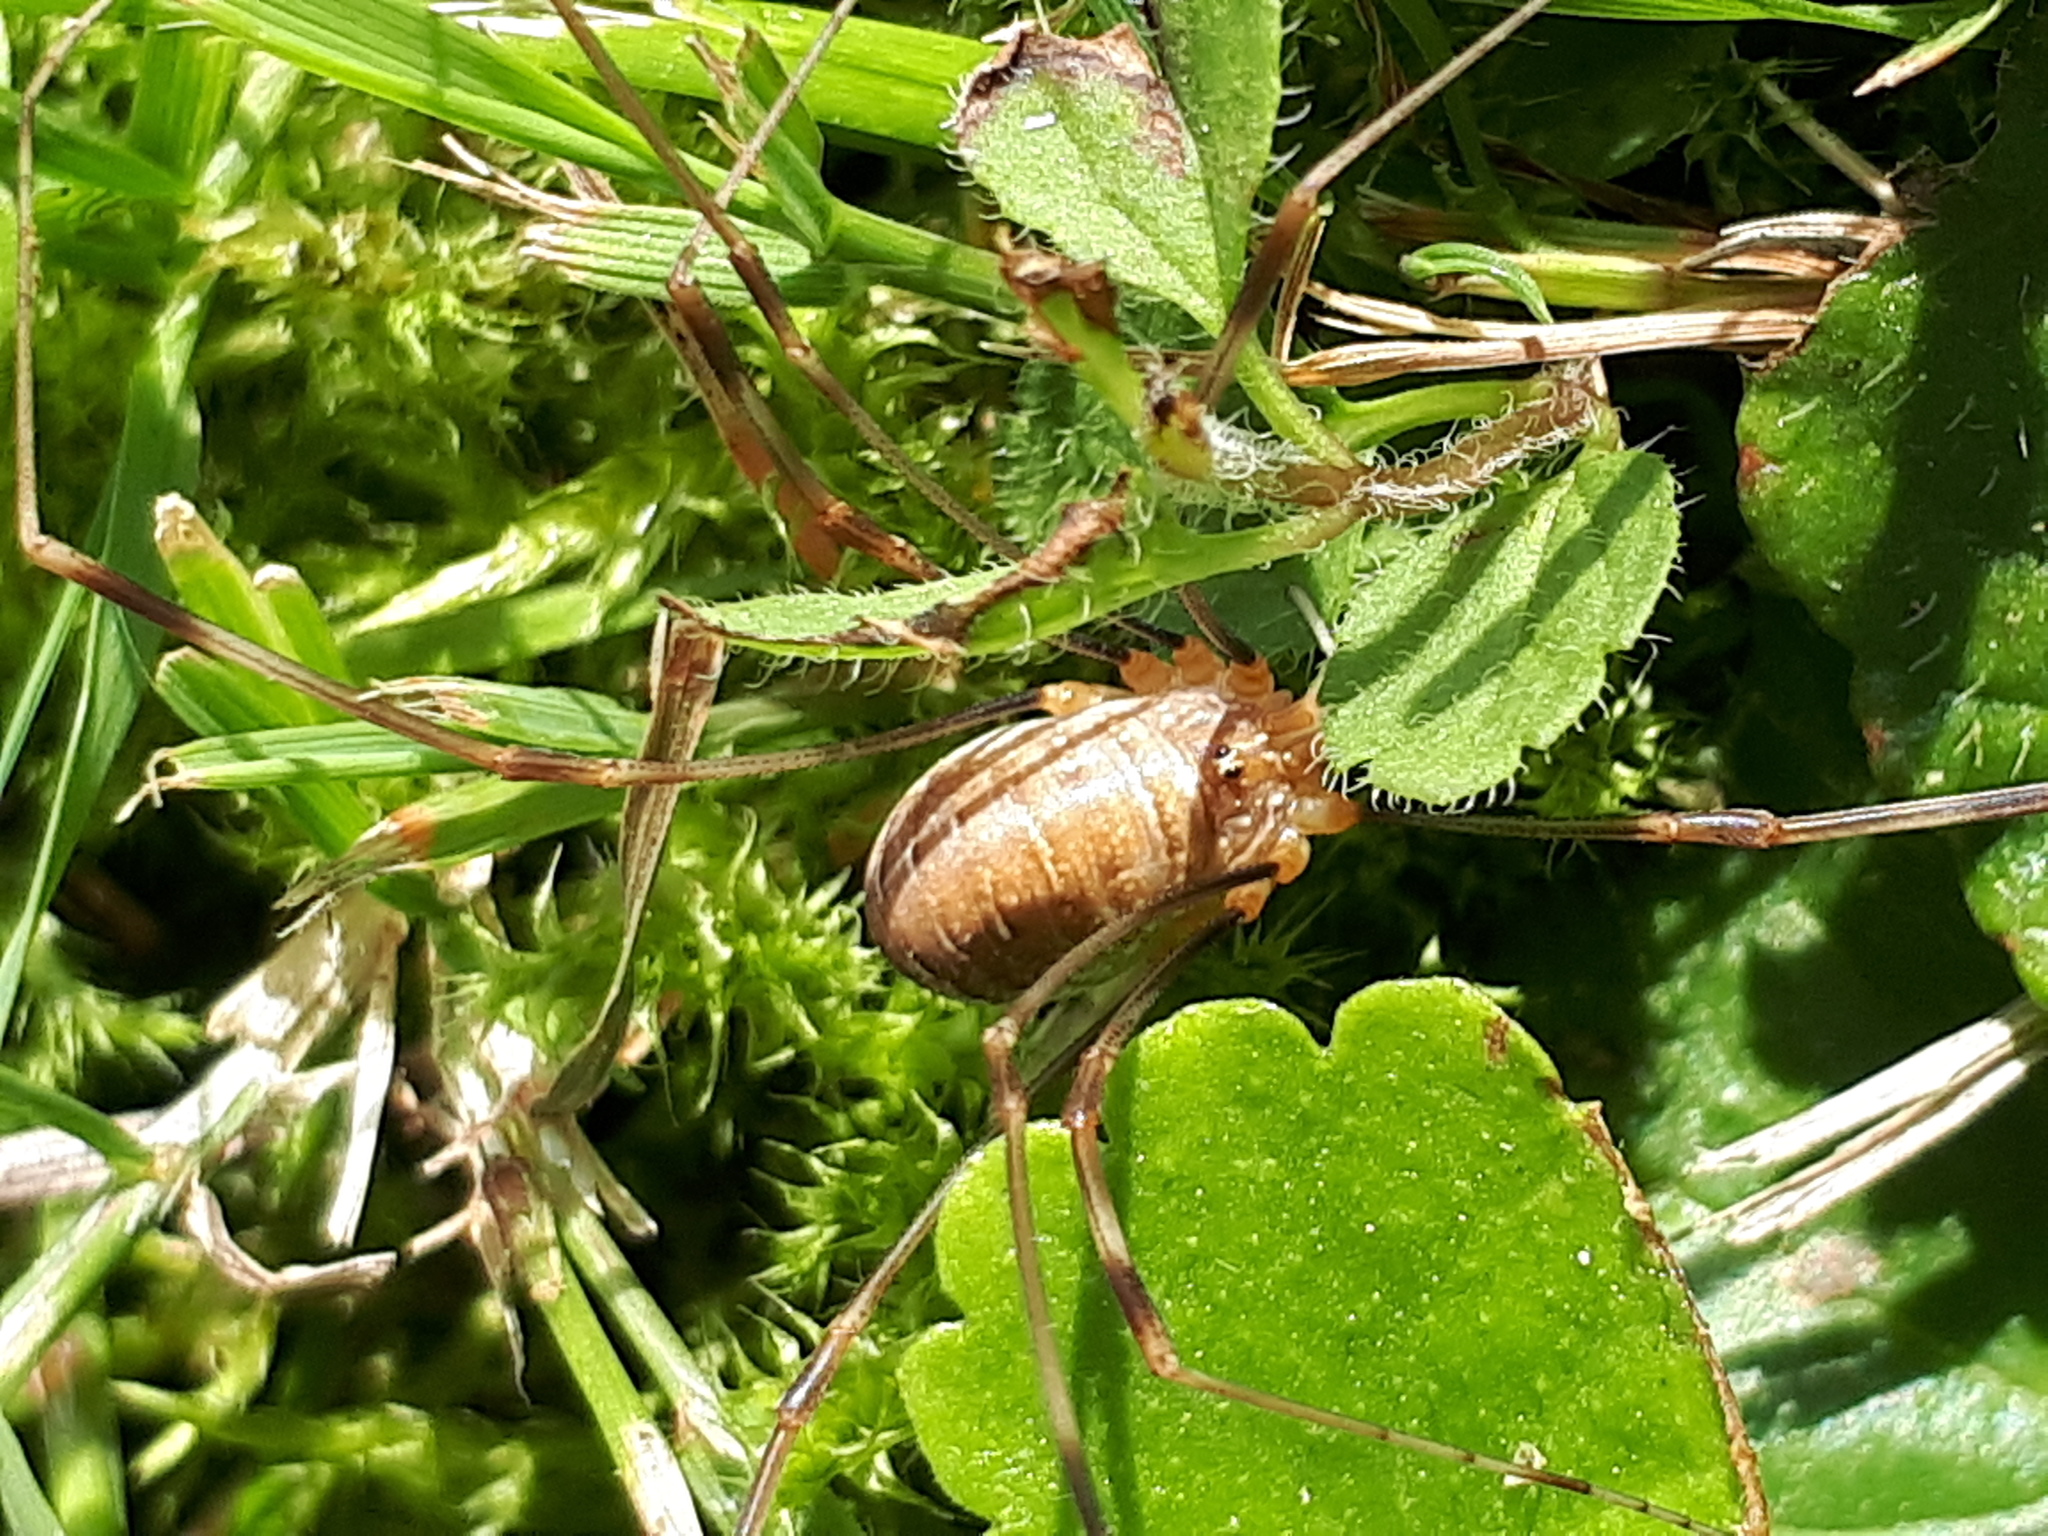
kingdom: Animalia
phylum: Arthropoda
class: Arachnida
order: Opiliones
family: Phalangiidae
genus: Opilio
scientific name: Opilio canestrinii
